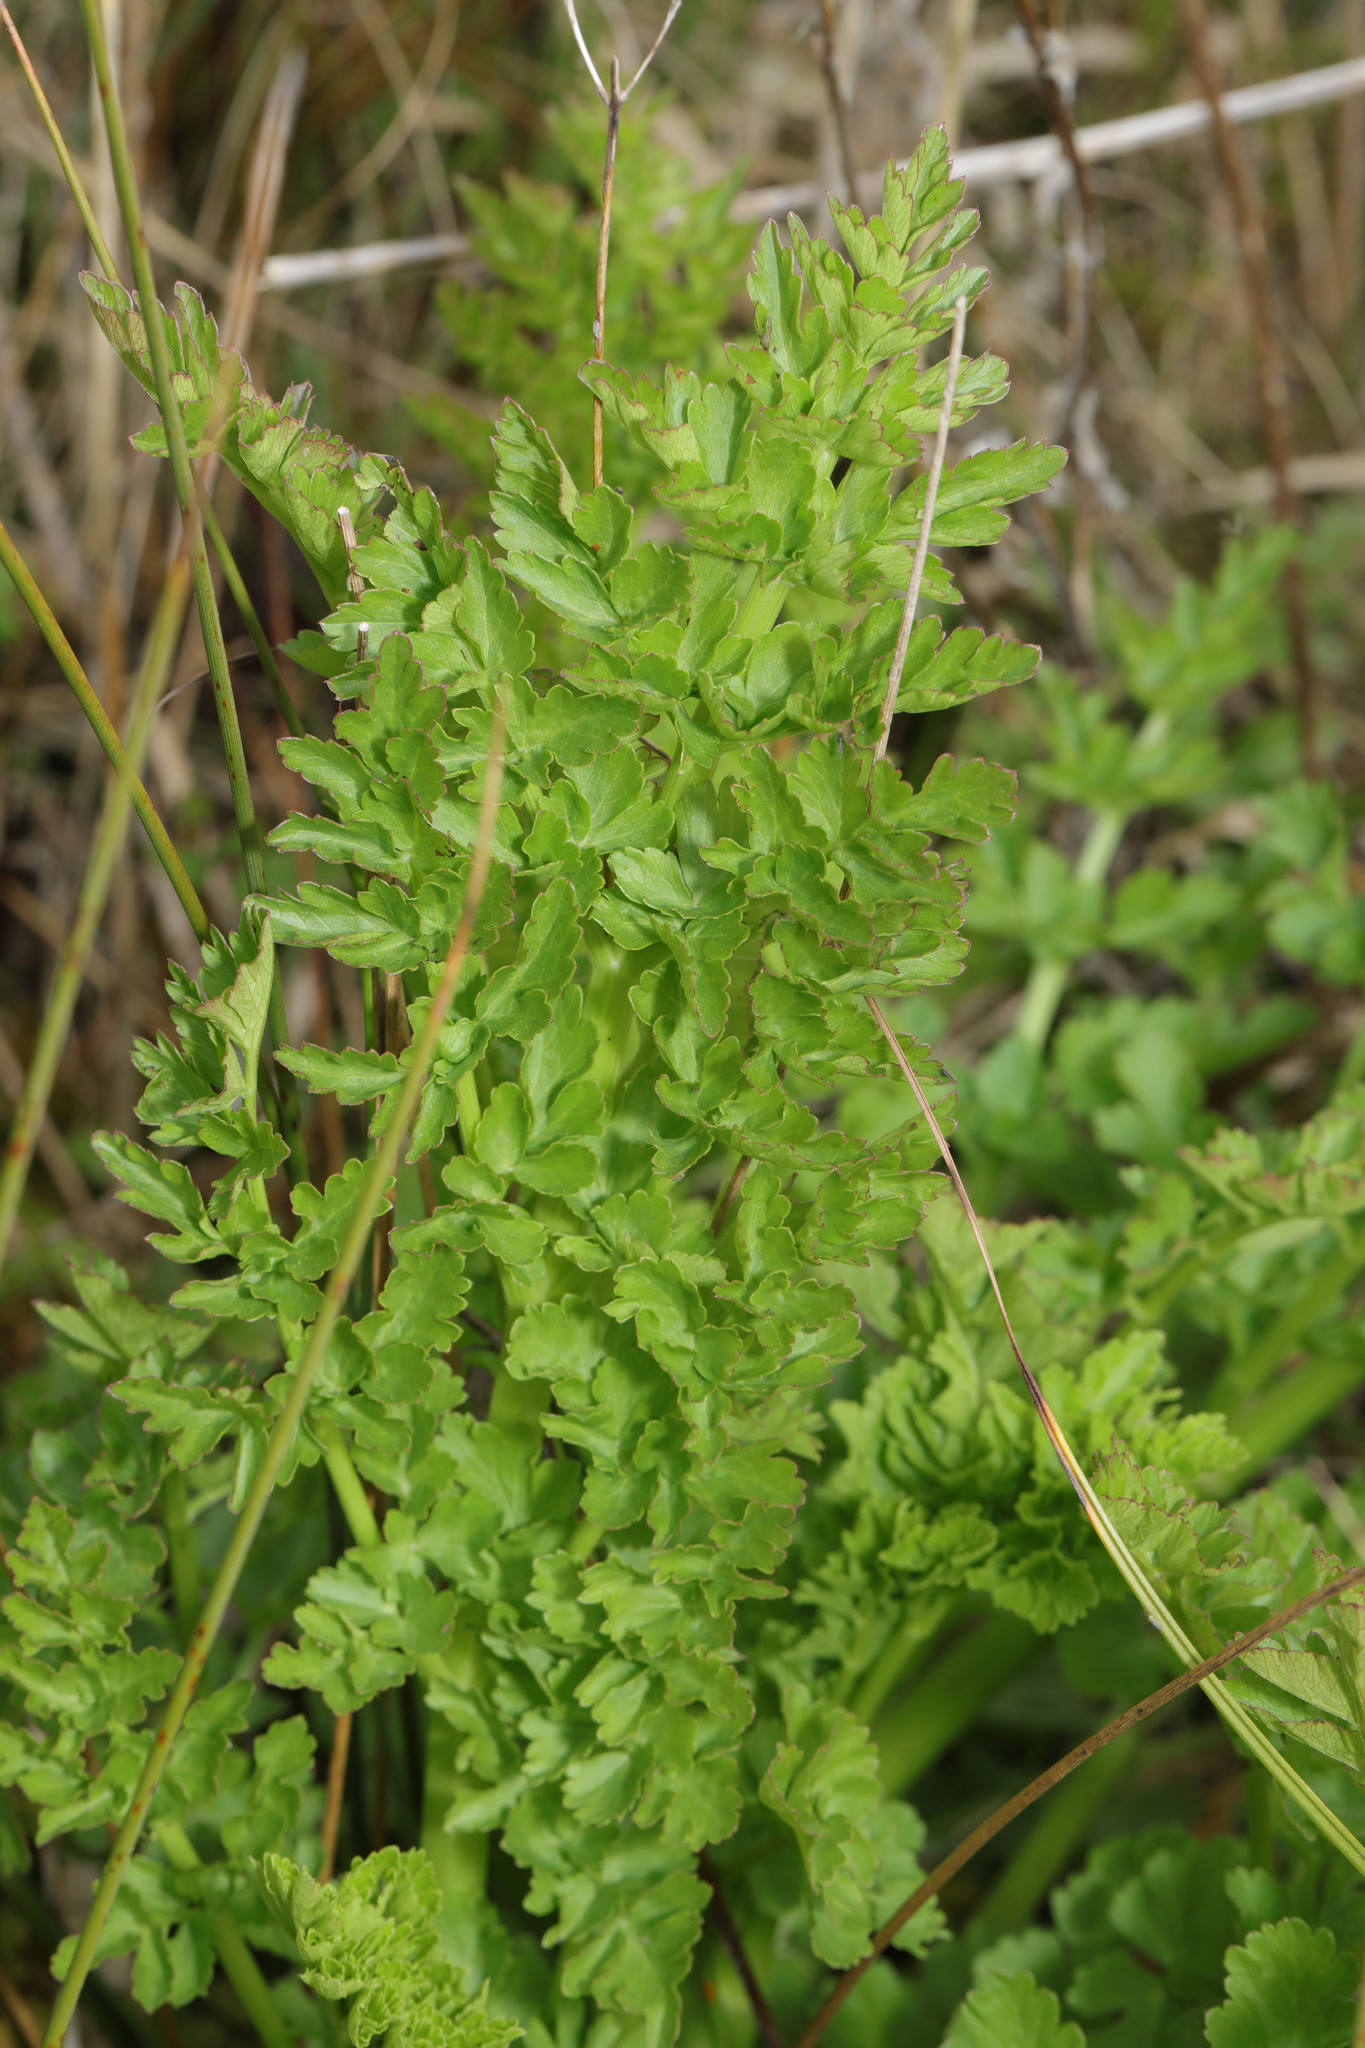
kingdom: Plantae
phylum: Tracheophyta
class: Magnoliopsida
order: Apiales
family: Apiaceae
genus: Oenanthe
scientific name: Oenanthe crocata
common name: Hemlock water-dropwort
